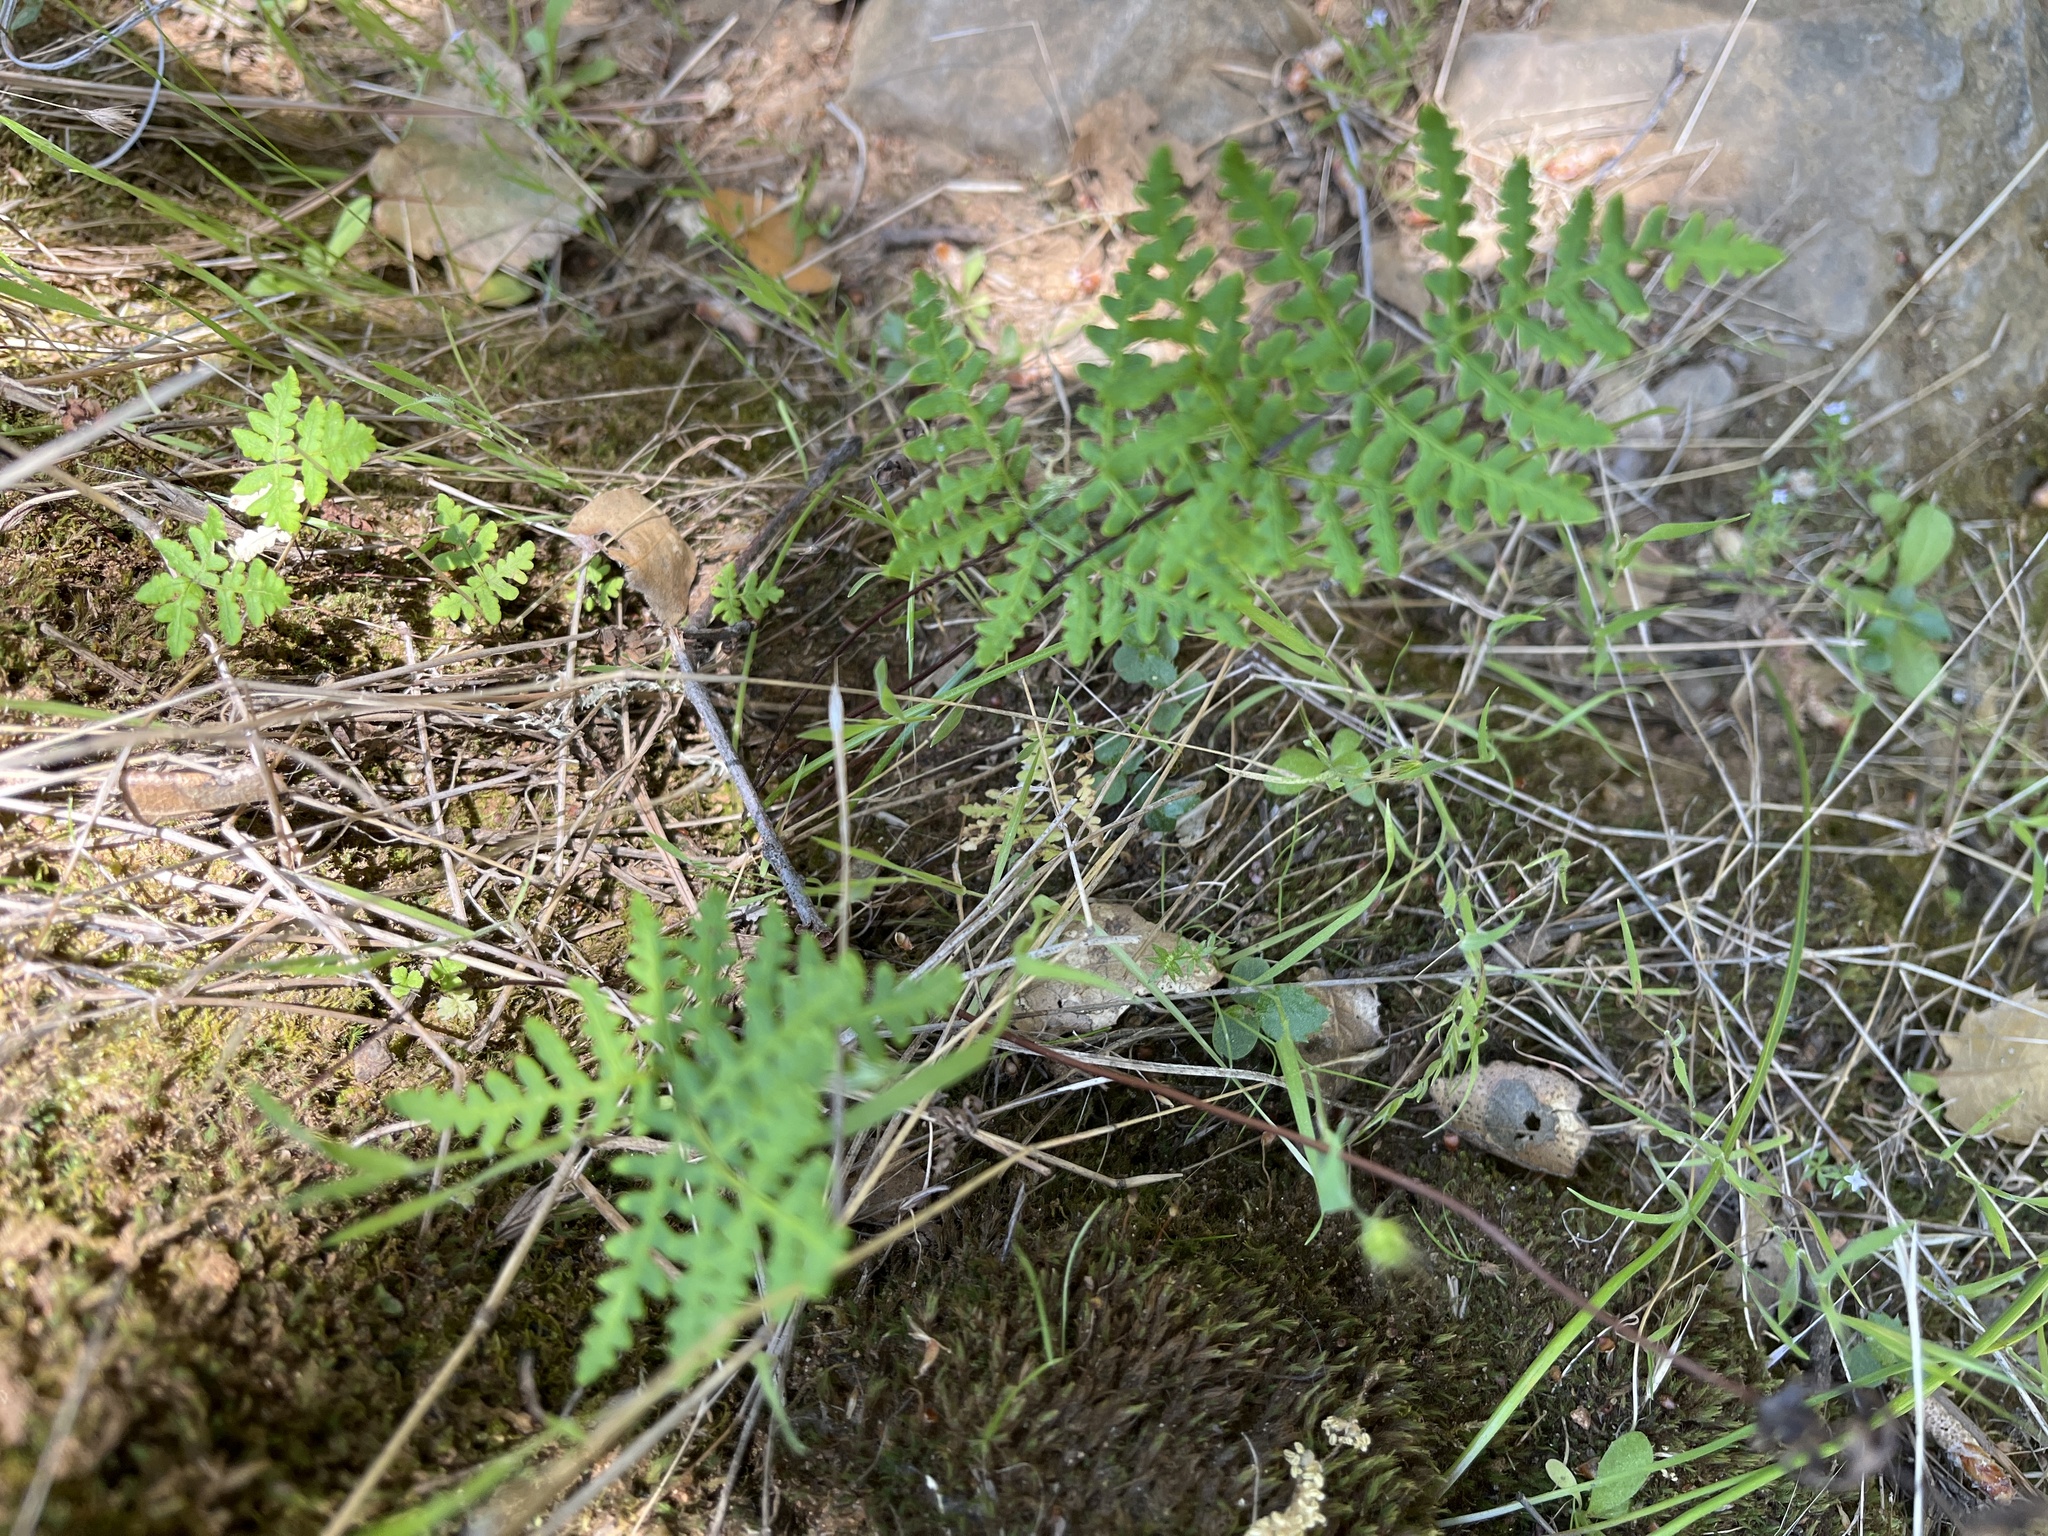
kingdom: Plantae
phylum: Tracheophyta
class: Polypodiopsida
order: Polypodiales
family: Pteridaceae
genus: Pentagramma
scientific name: Pentagramma triangularis
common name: Gold fern
